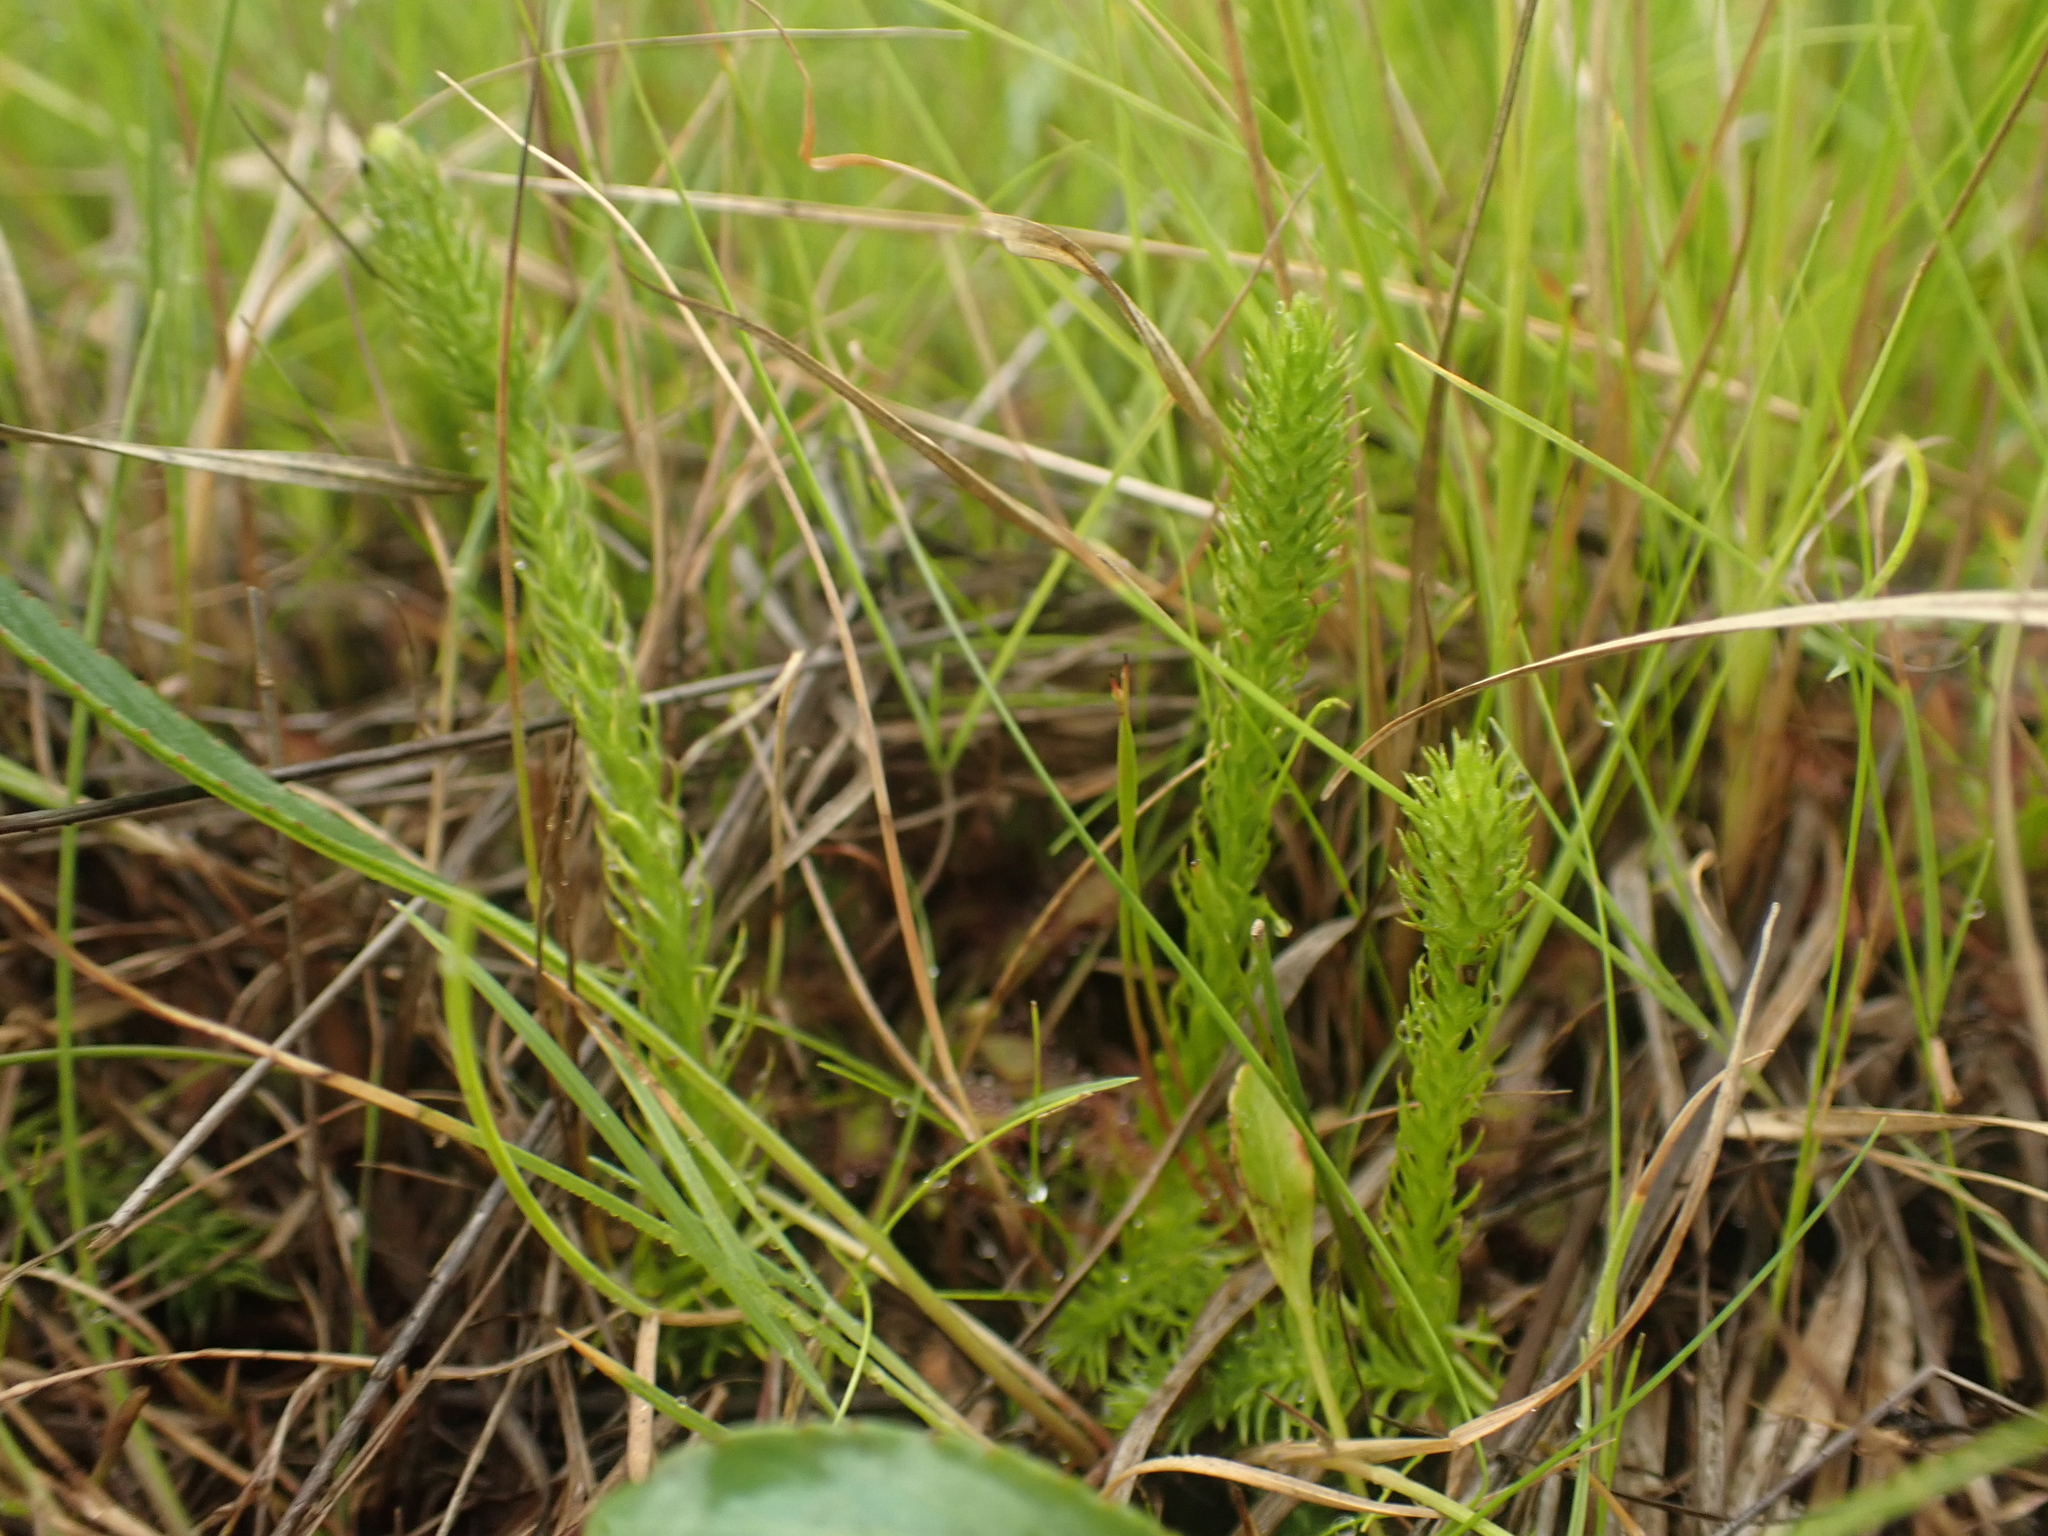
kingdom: Plantae
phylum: Tracheophyta
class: Lycopodiopsida
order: Lycopodiales
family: Lycopodiaceae
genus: Lycopodiella
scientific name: Lycopodiella inundata
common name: Marsh clubmoss
